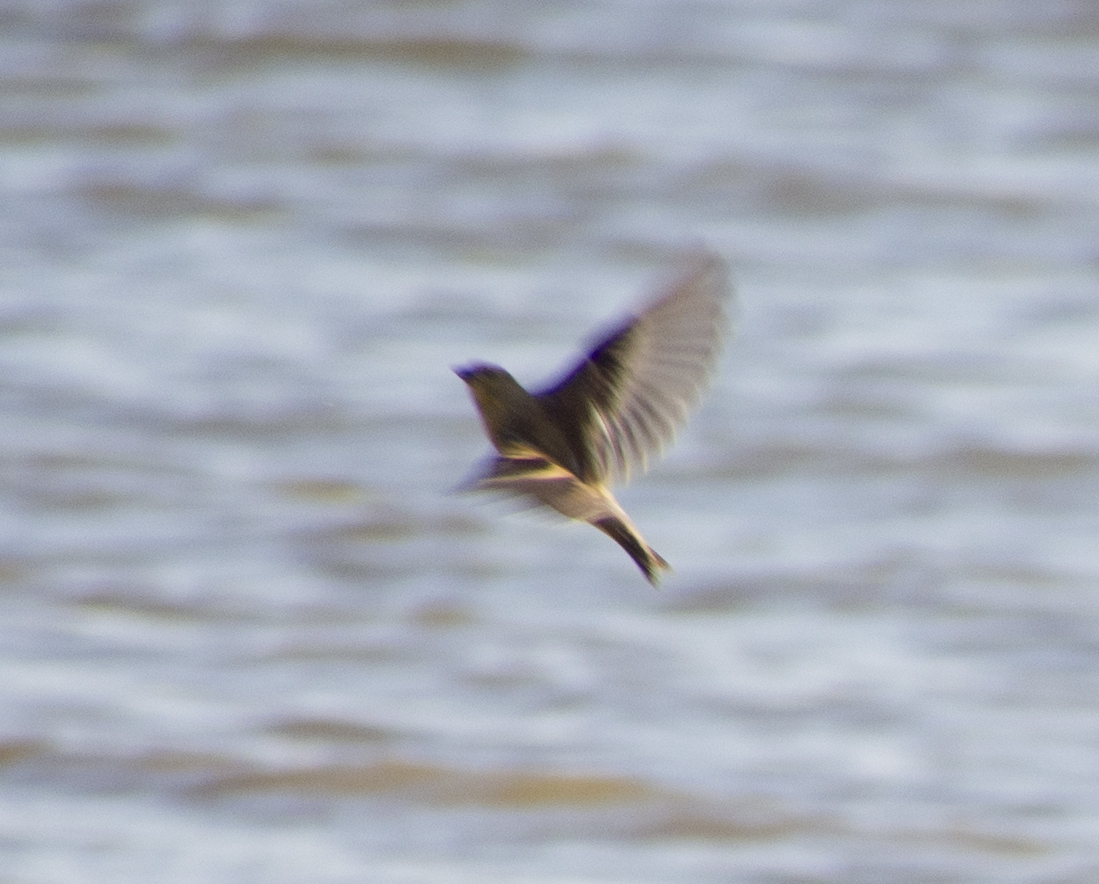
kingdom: Animalia
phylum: Chordata
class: Aves
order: Passeriformes
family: Fringillidae
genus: Spinus
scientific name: Spinus tristis
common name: American goldfinch
